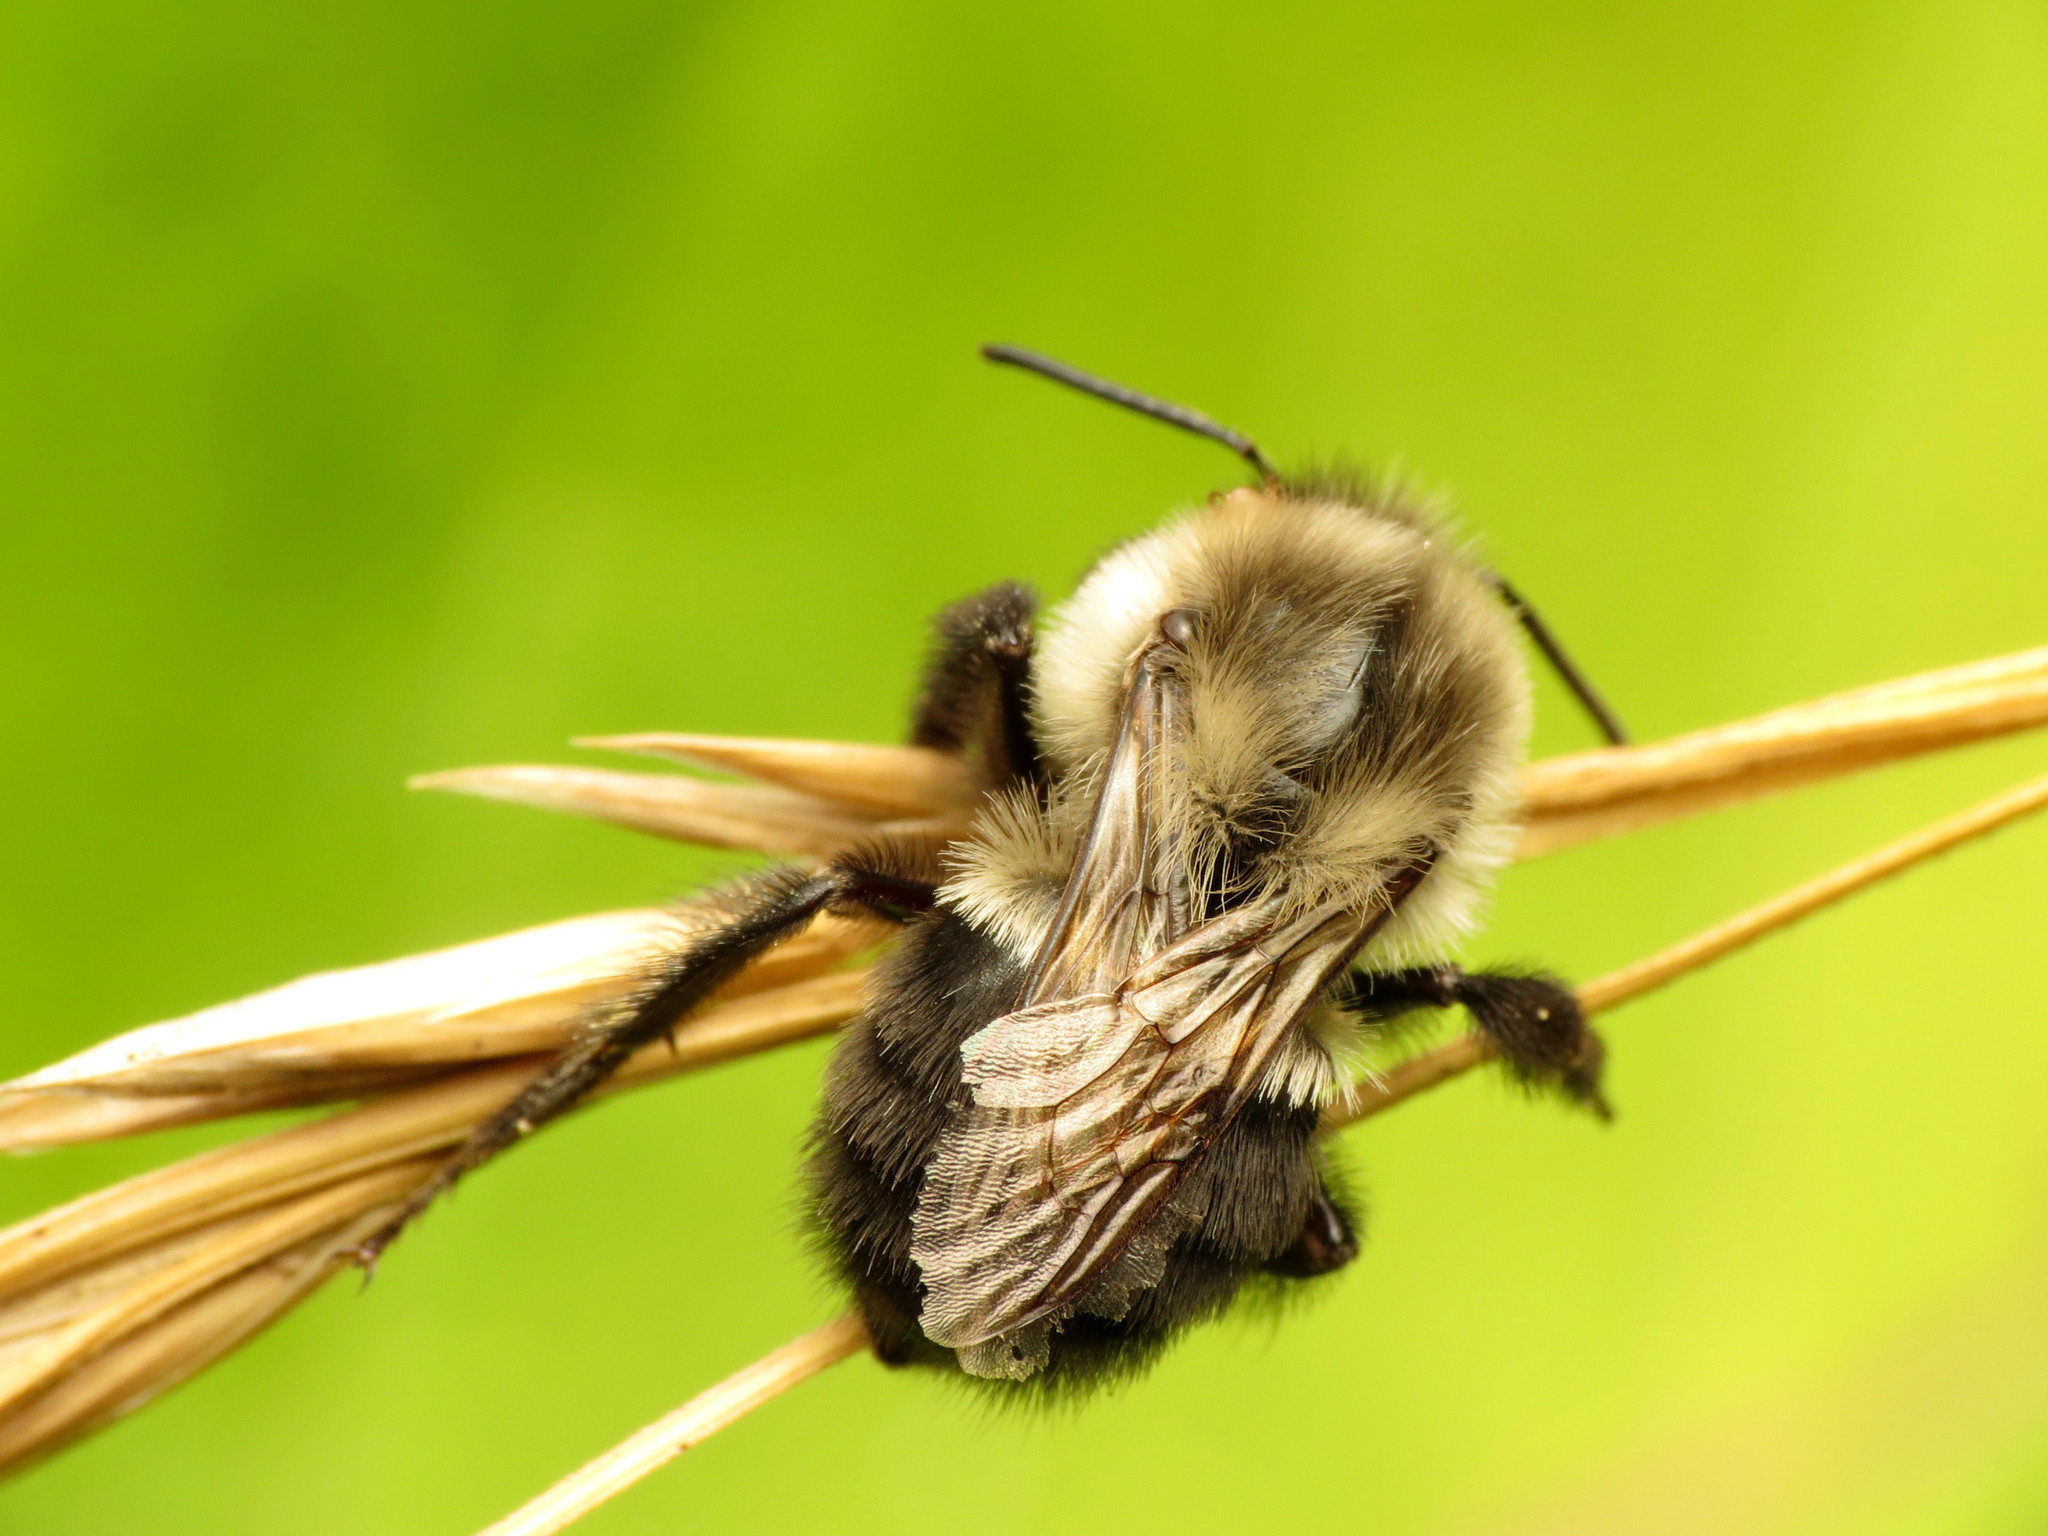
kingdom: Animalia
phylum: Arthropoda
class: Insecta
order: Hymenoptera
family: Apidae
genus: Bombus
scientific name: Bombus impatiens
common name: Common eastern bumble bee
